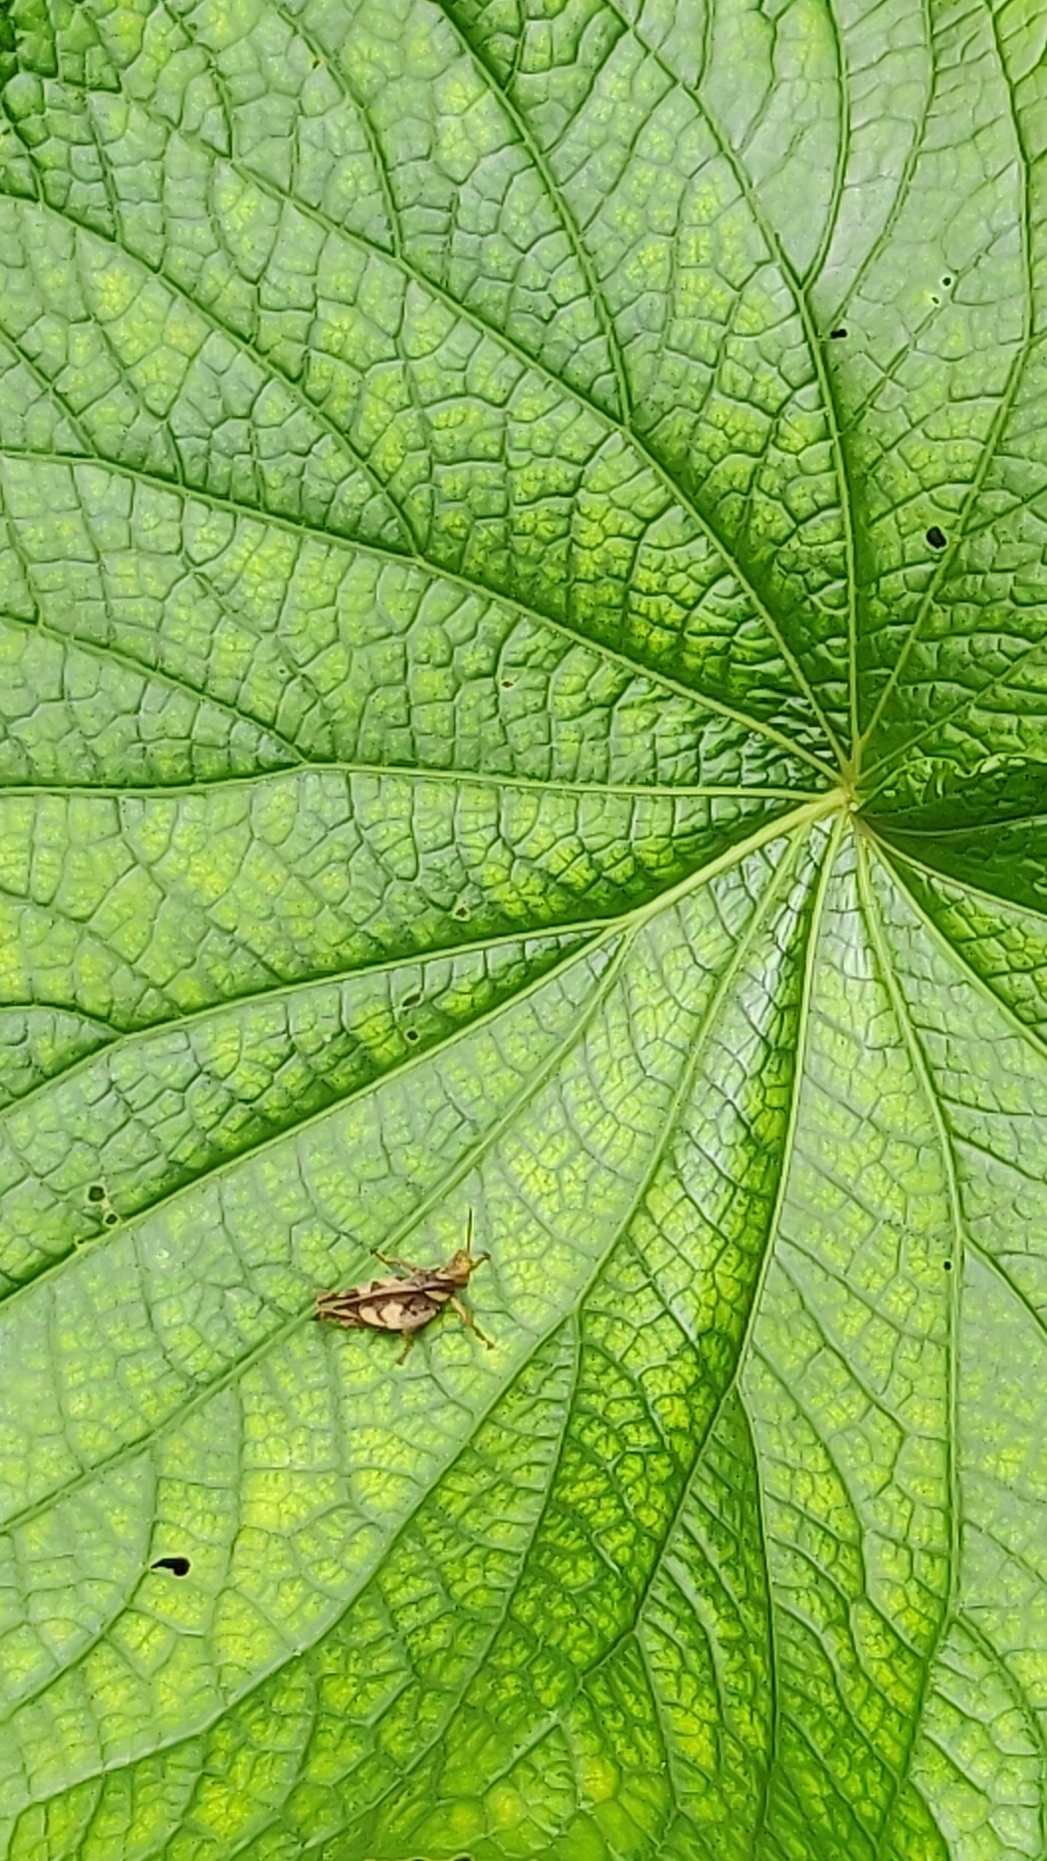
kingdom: Plantae
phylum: Tracheophyta
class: Magnoliopsida
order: Piperales
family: Piperaceae
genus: Piper
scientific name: Piper umbellatum
